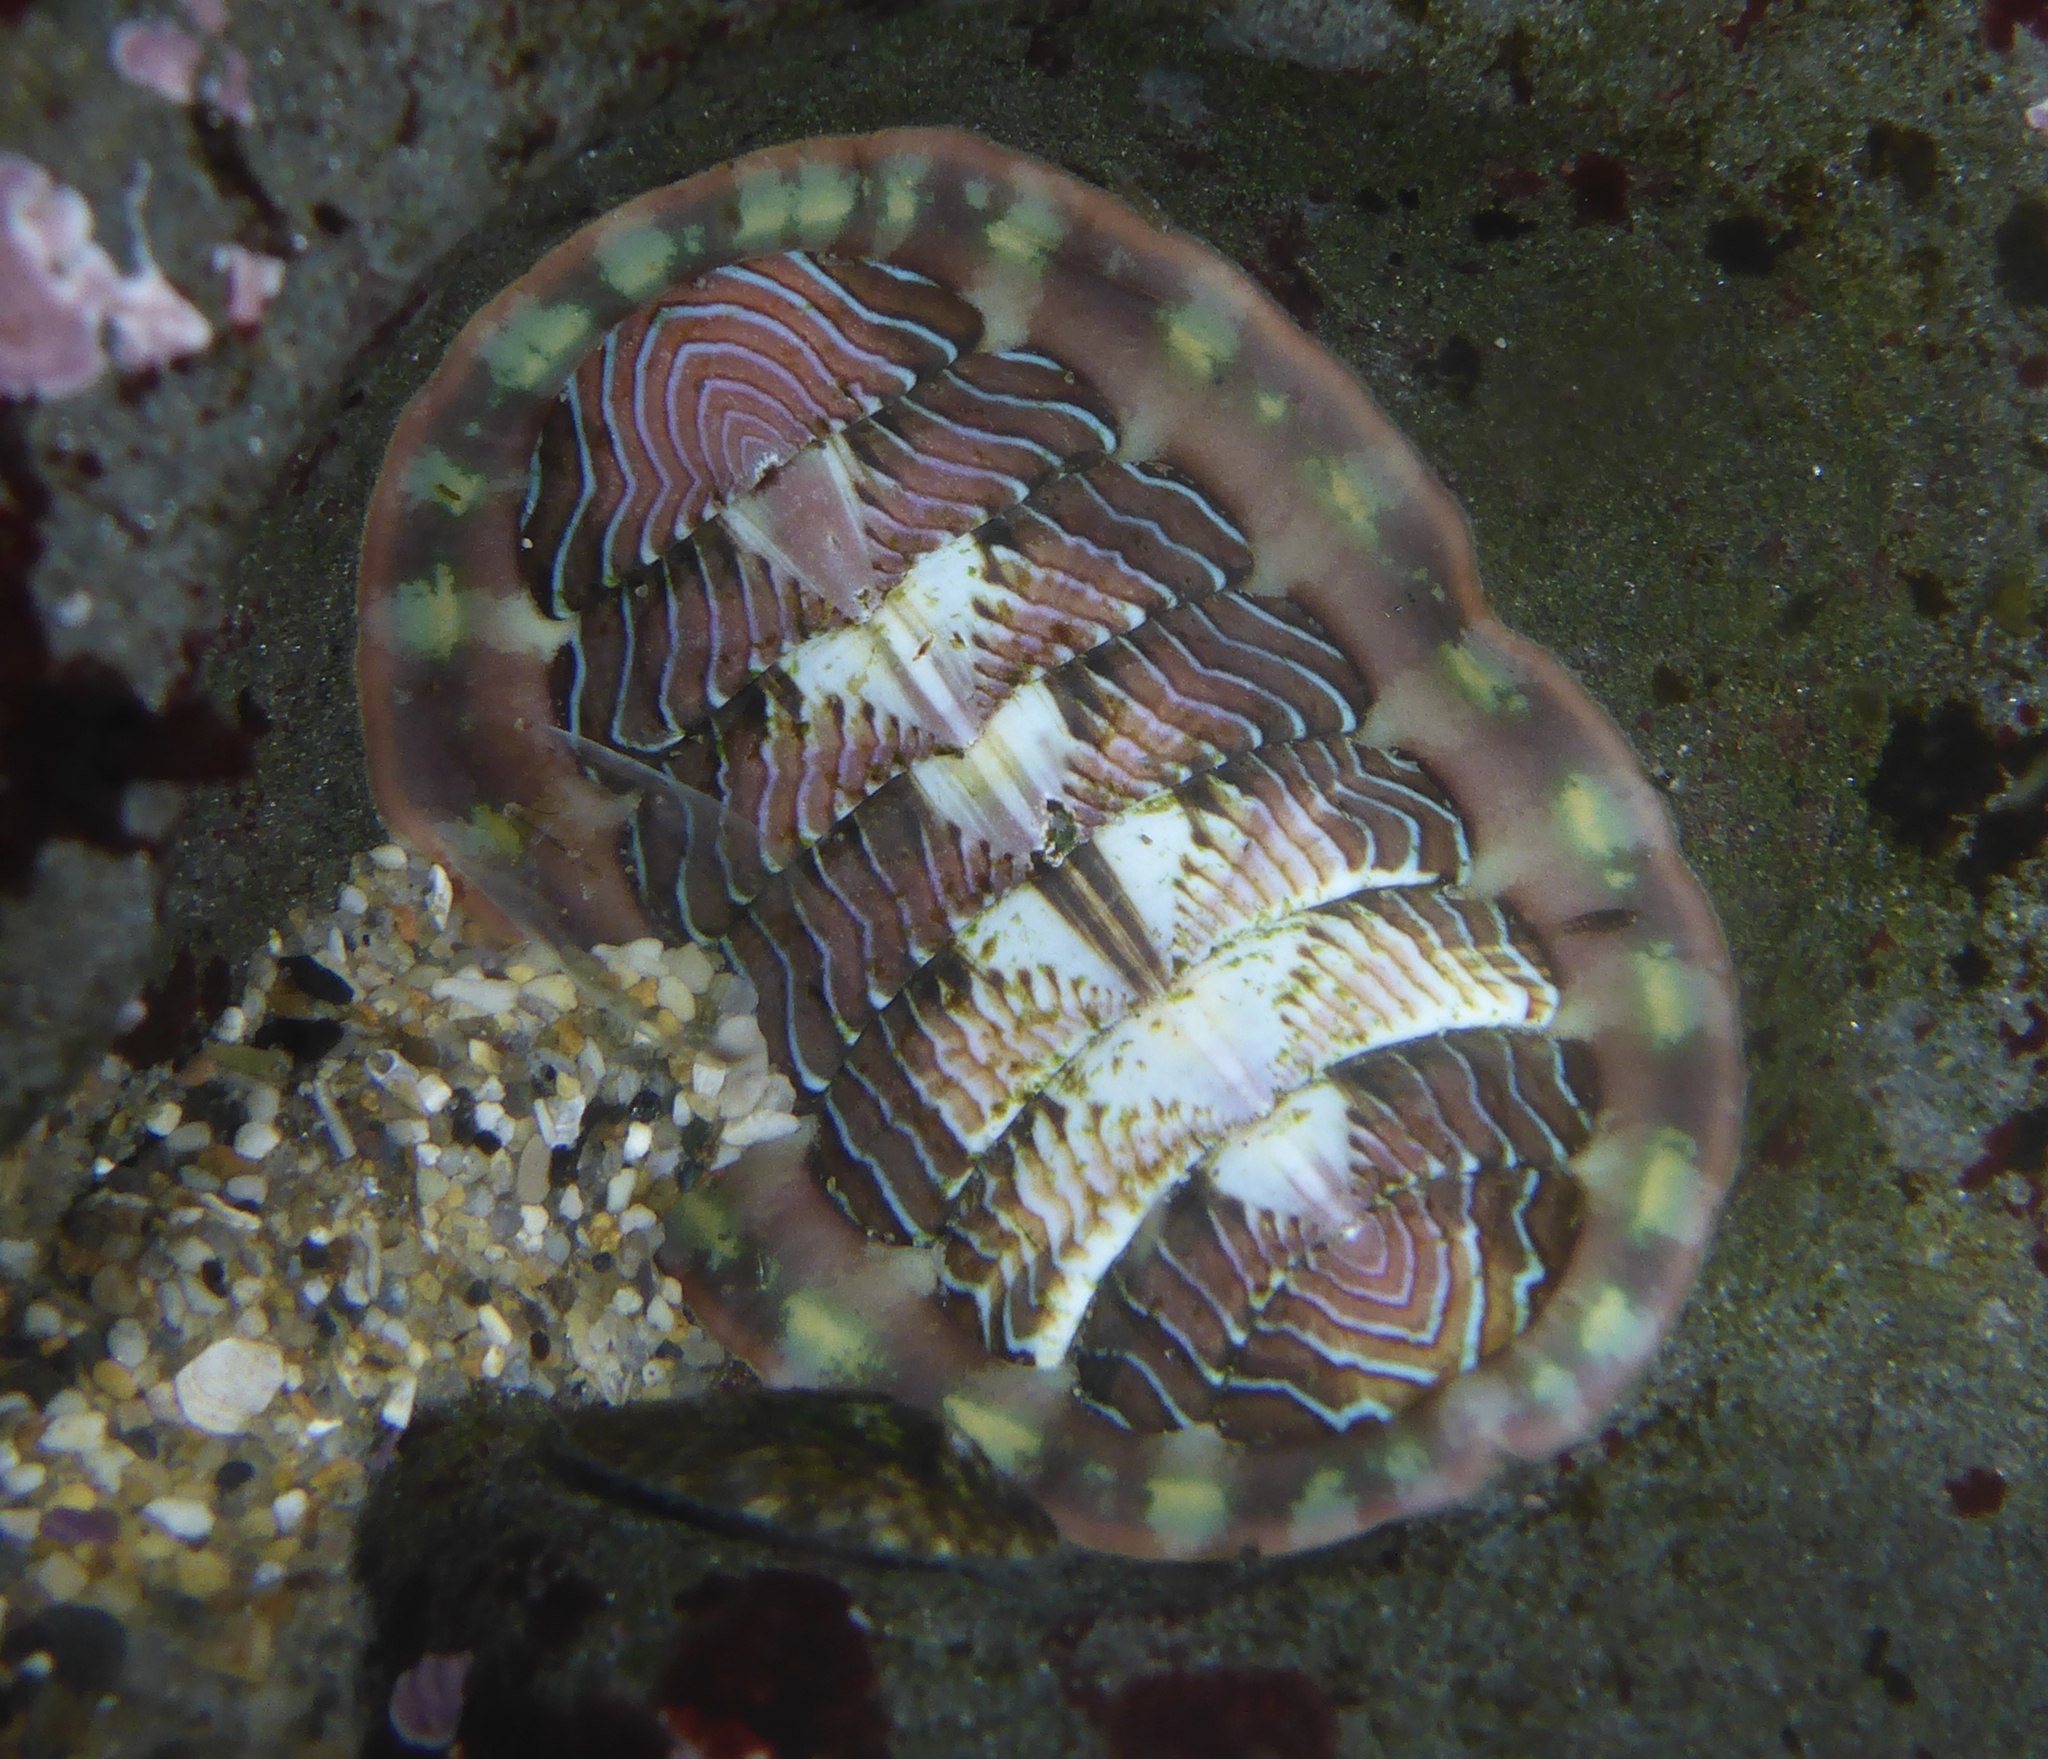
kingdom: Animalia
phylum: Mollusca
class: Polyplacophora
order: Chitonida
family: Tonicellidae
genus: Tonicella
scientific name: Tonicella lineata
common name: Lined chiton
